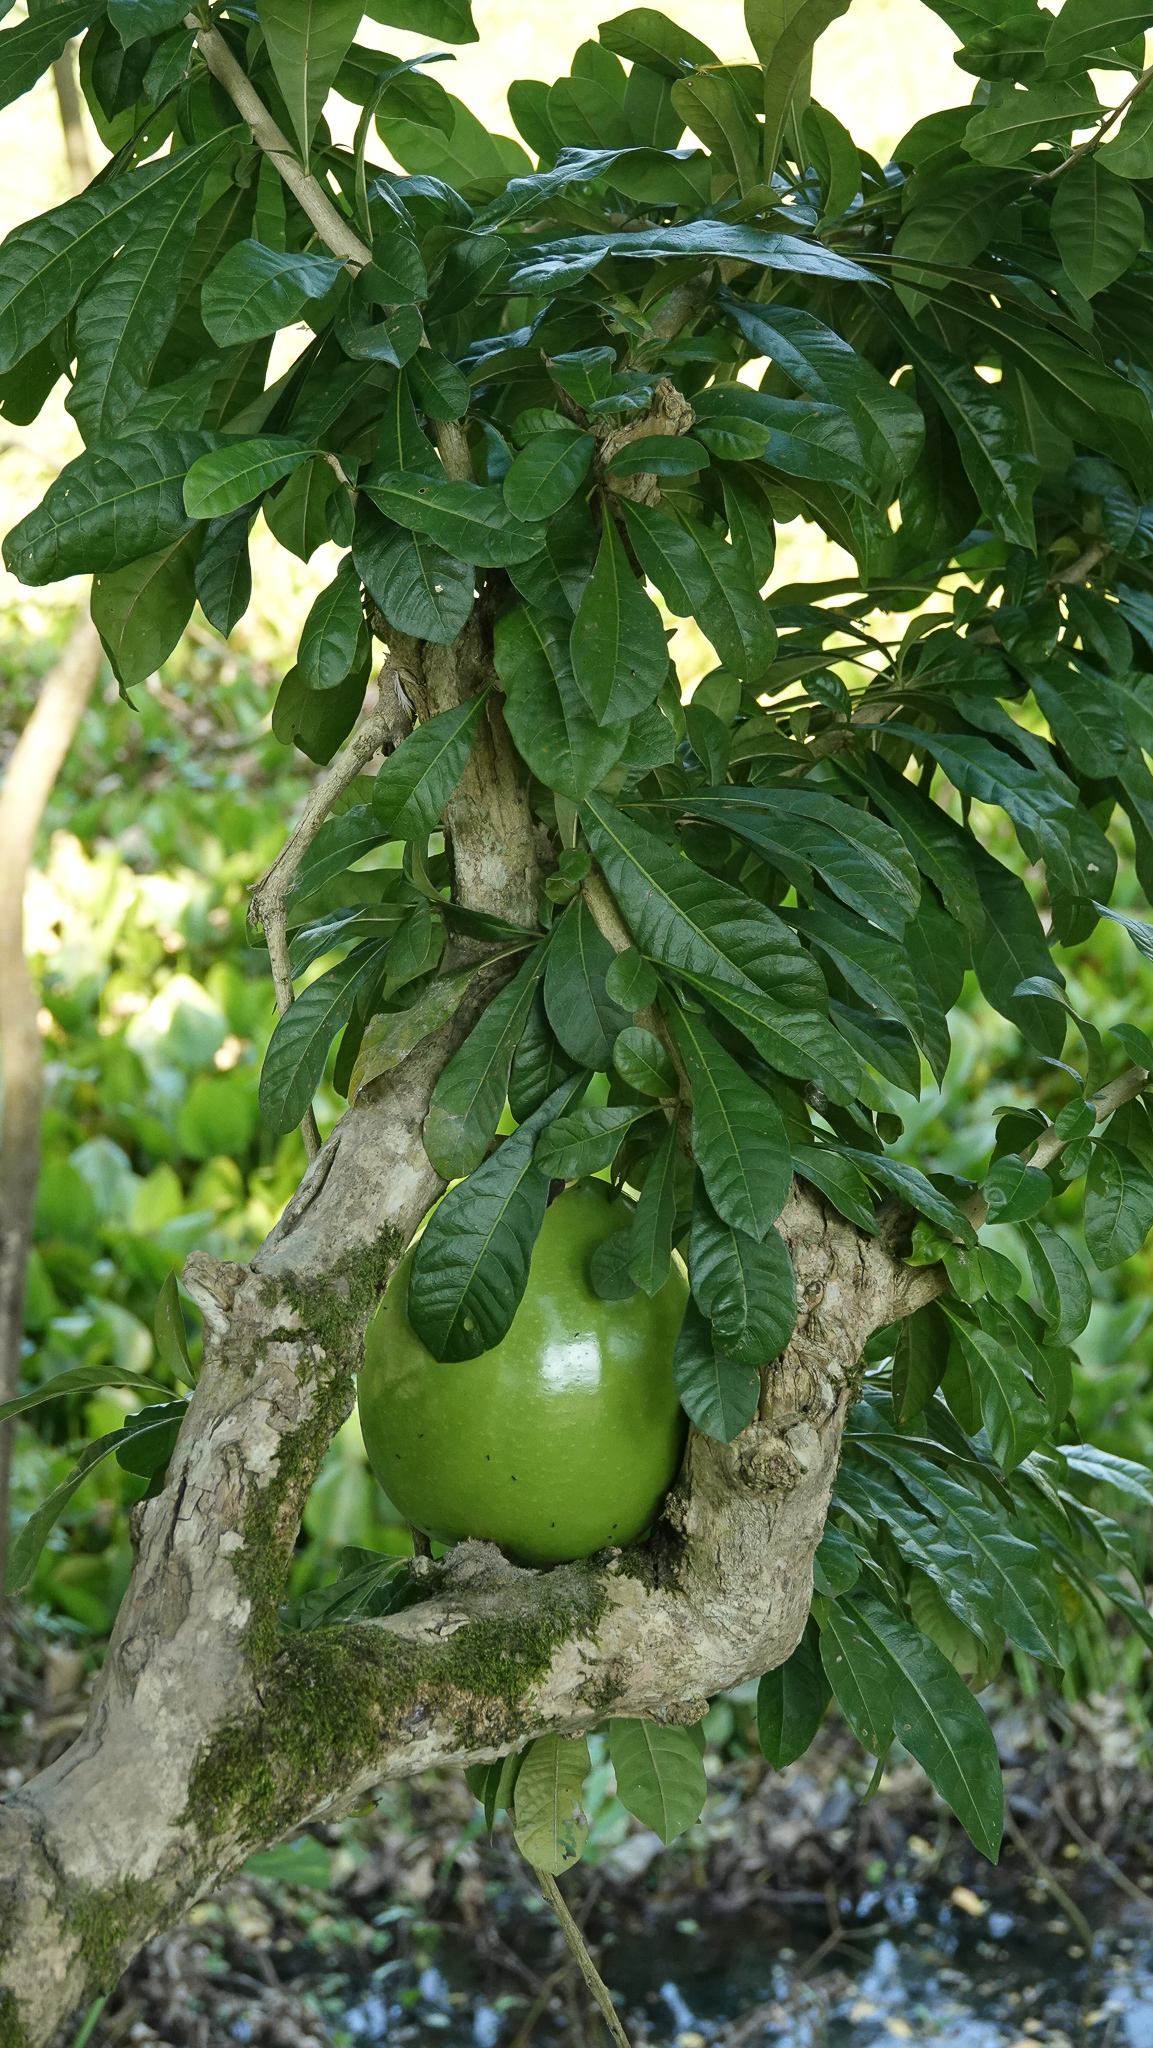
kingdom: Plantae
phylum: Tracheophyta
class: Magnoliopsida
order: Lamiales
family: Bignoniaceae
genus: Crescentia
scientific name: Crescentia cujete
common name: Calabash
